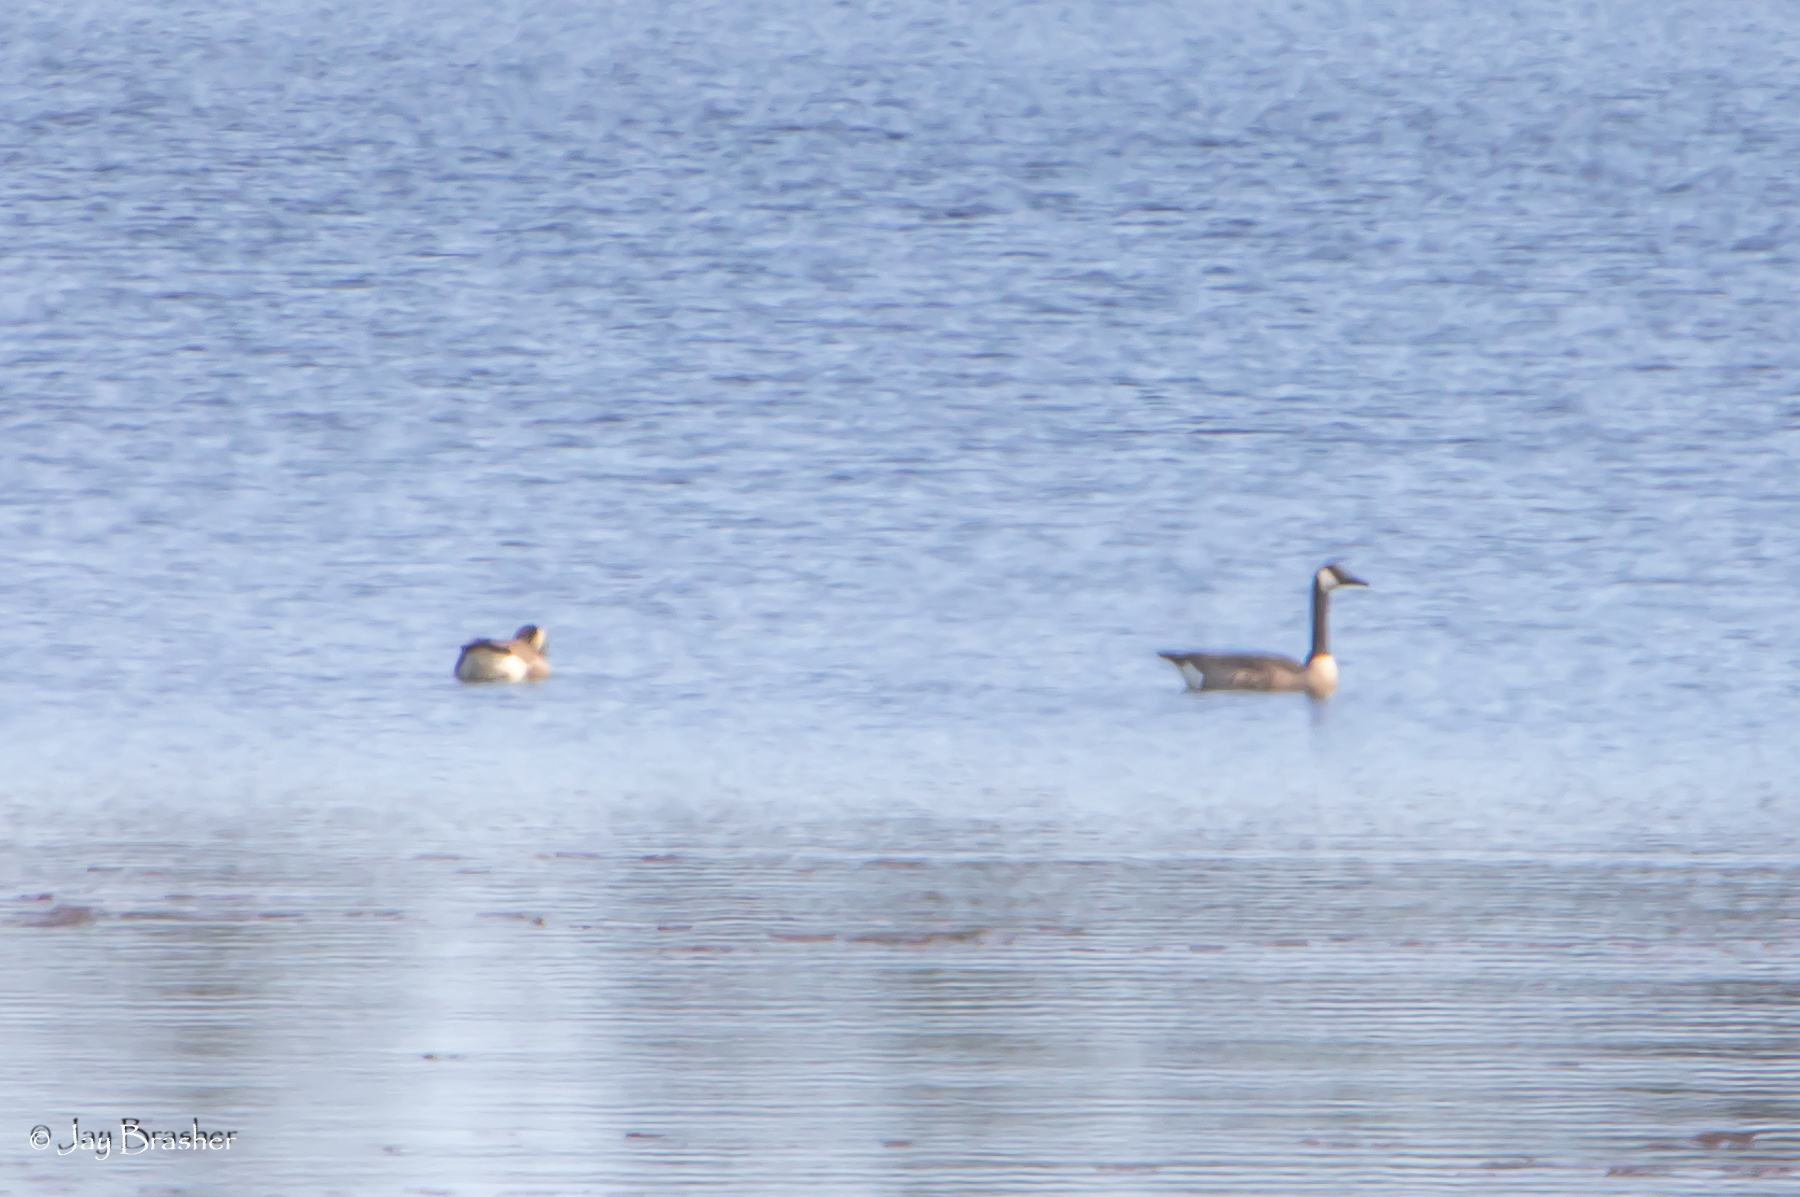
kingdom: Animalia
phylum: Chordata
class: Aves
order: Anseriformes
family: Anatidae
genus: Branta
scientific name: Branta canadensis
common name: Canada goose
